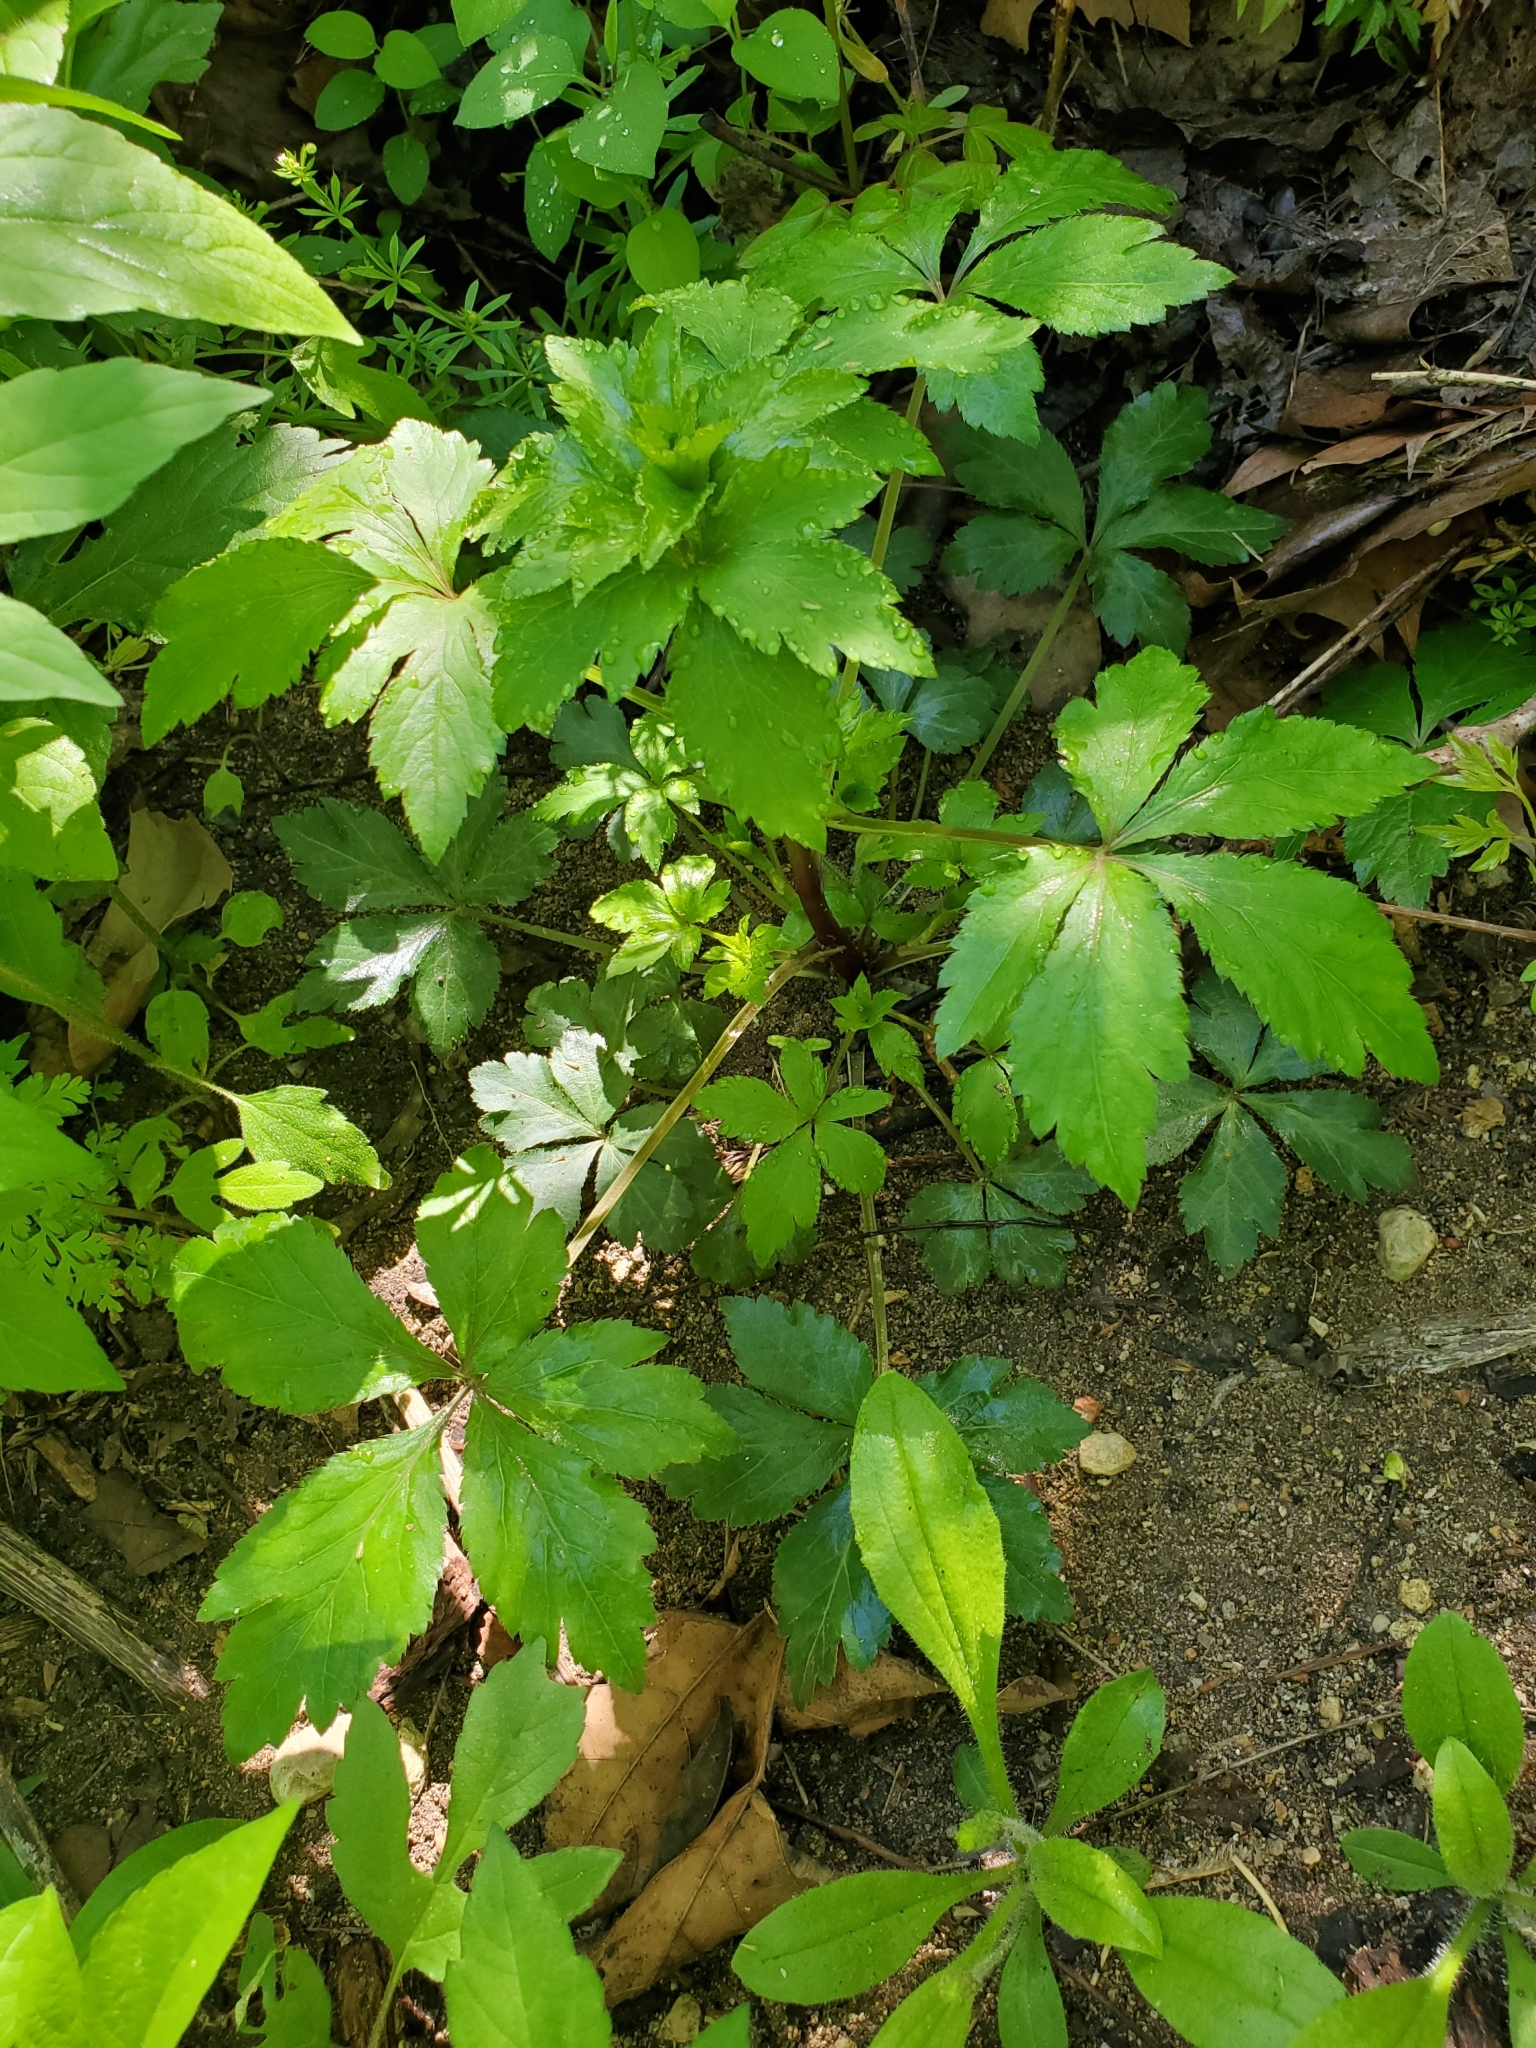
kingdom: Plantae
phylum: Tracheophyta
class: Magnoliopsida
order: Apiales
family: Apiaceae
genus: Sanicula
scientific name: Sanicula canadensis
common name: Canada sanicle
